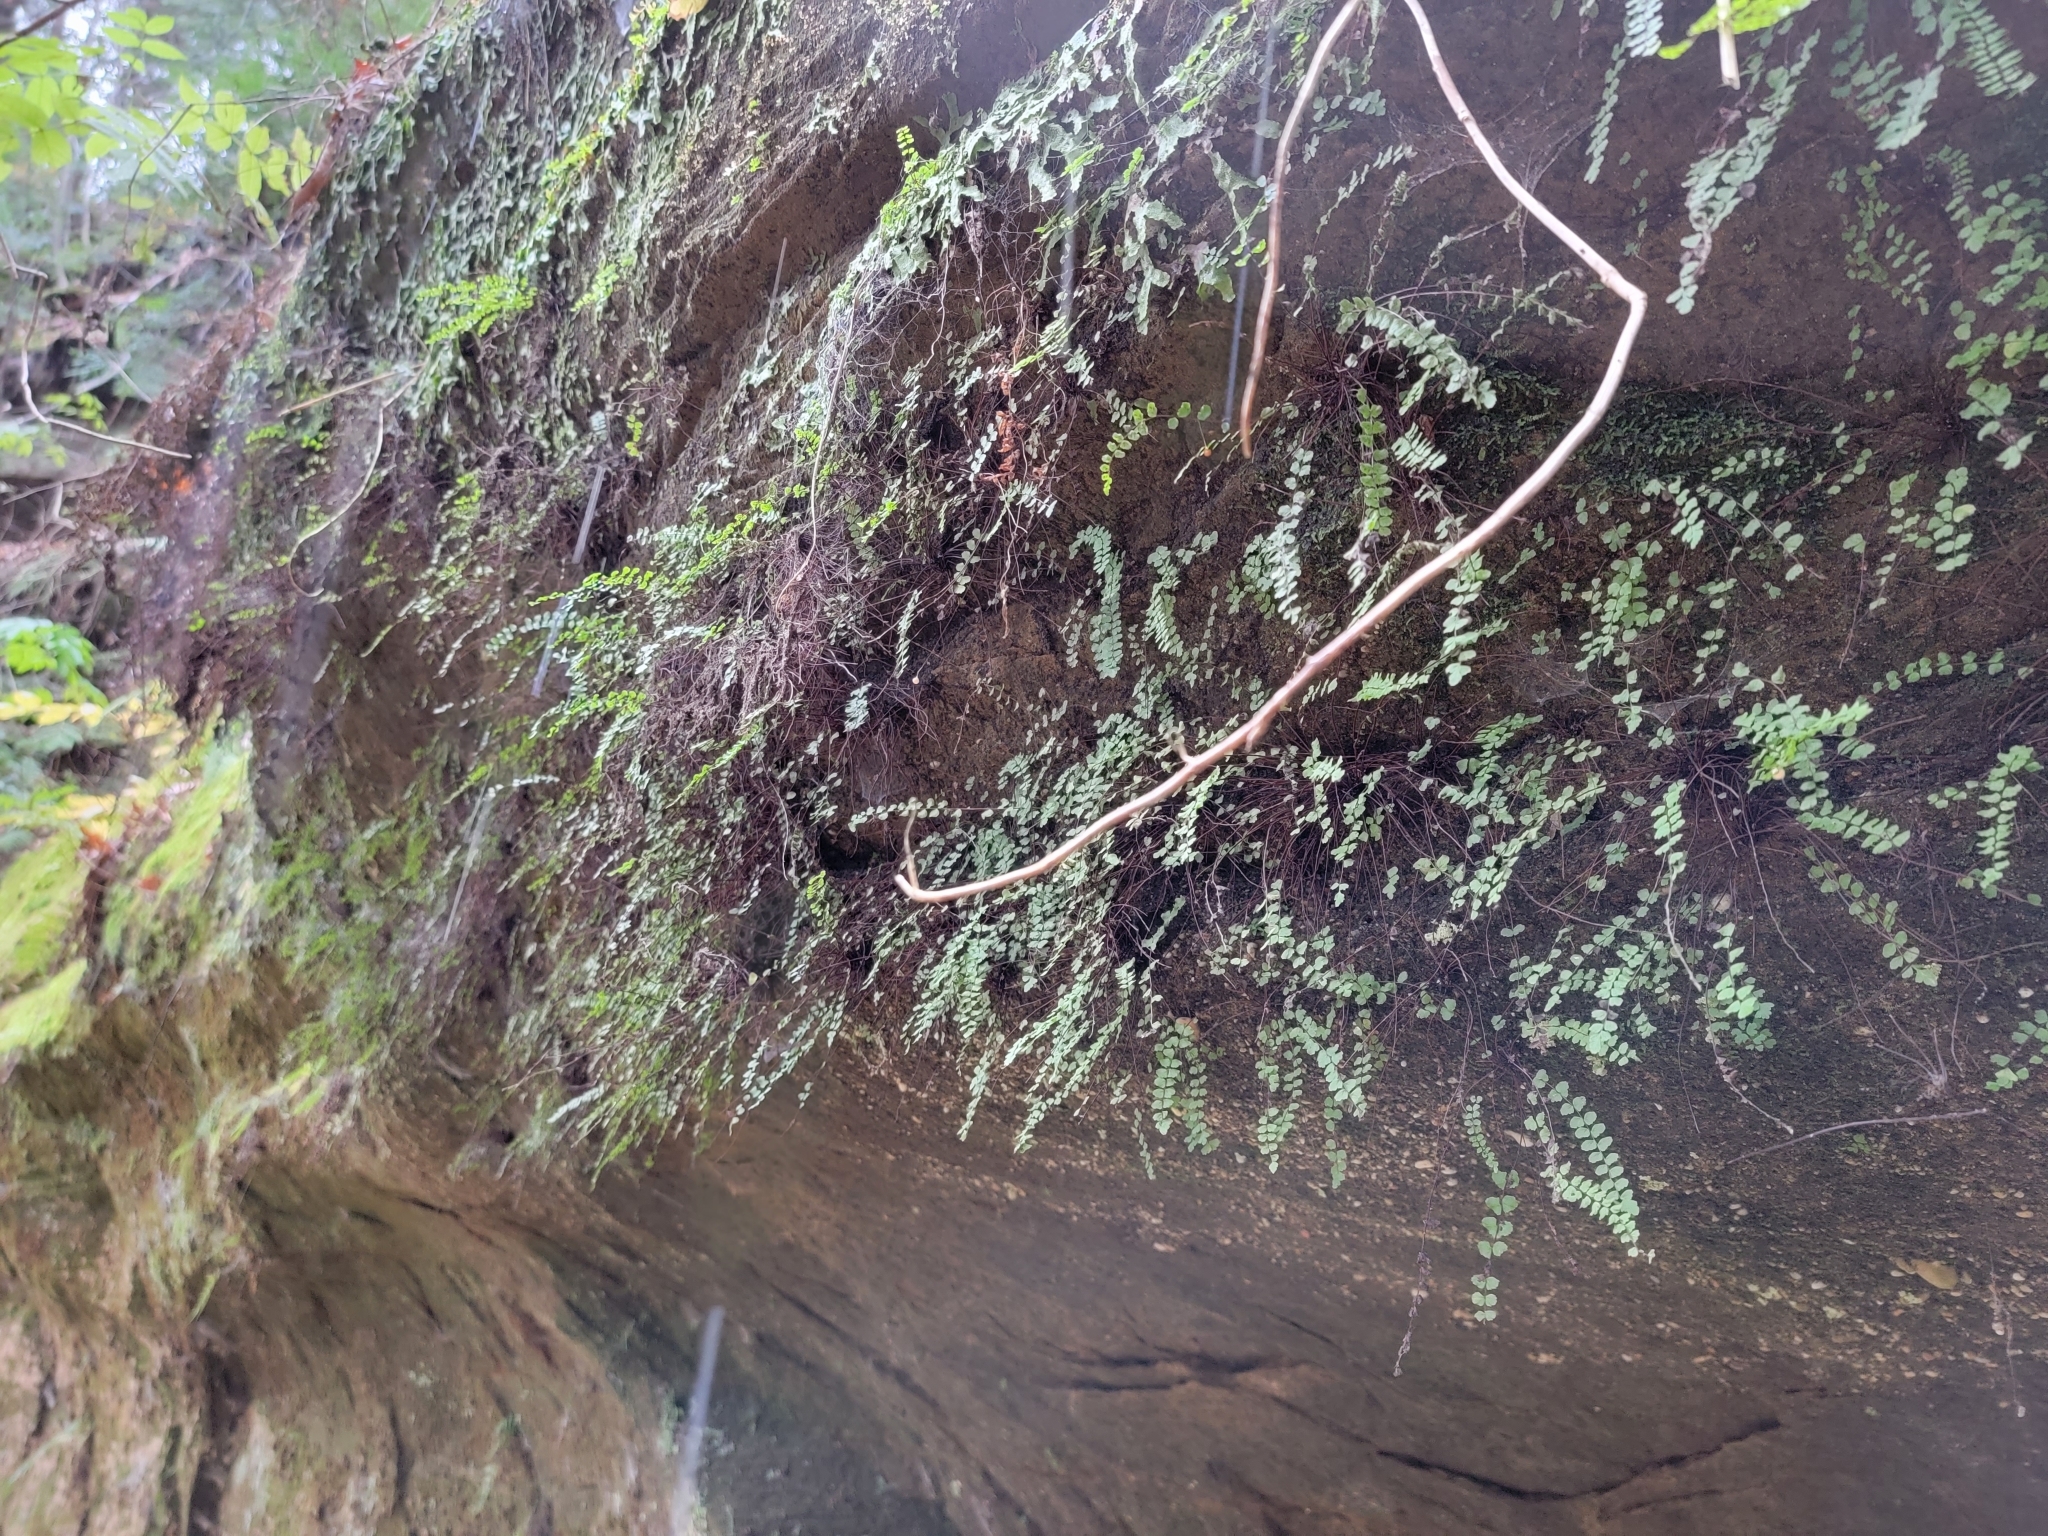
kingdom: Plantae
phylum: Tracheophyta
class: Polypodiopsida
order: Polypodiales
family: Aspleniaceae
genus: Asplenium
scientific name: Asplenium trichomanes
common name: Maidenhair spleenwort
